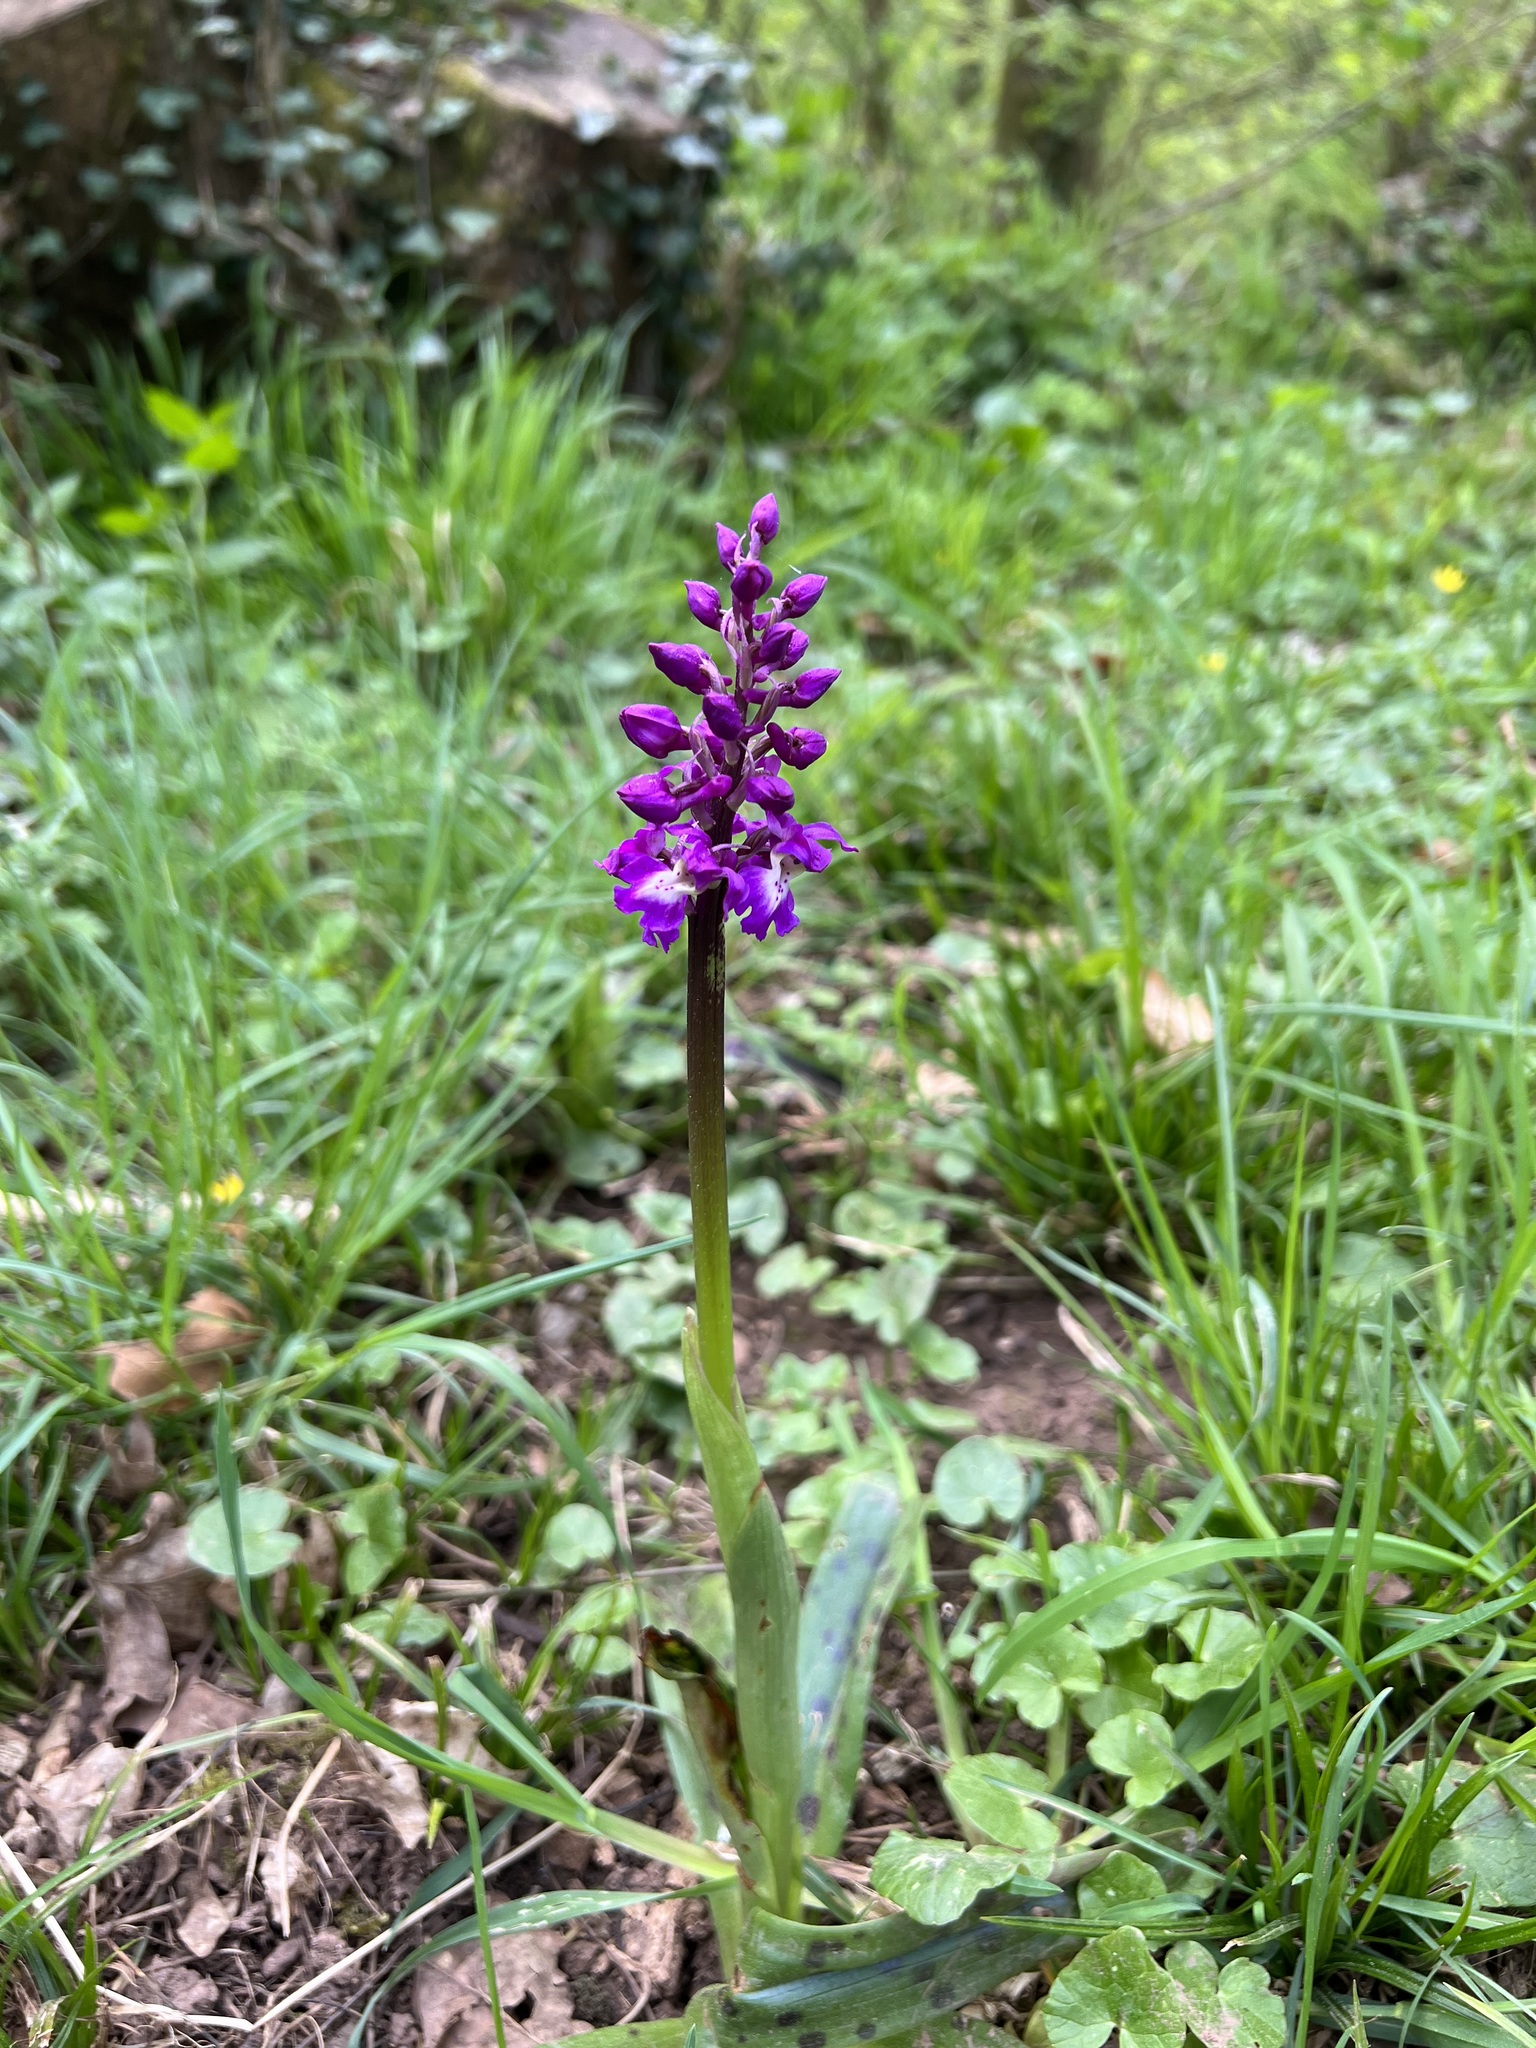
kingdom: Plantae
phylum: Tracheophyta
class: Liliopsida
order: Asparagales
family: Orchidaceae
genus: Orchis
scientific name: Orchis mascula
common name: Early-purple orchid
